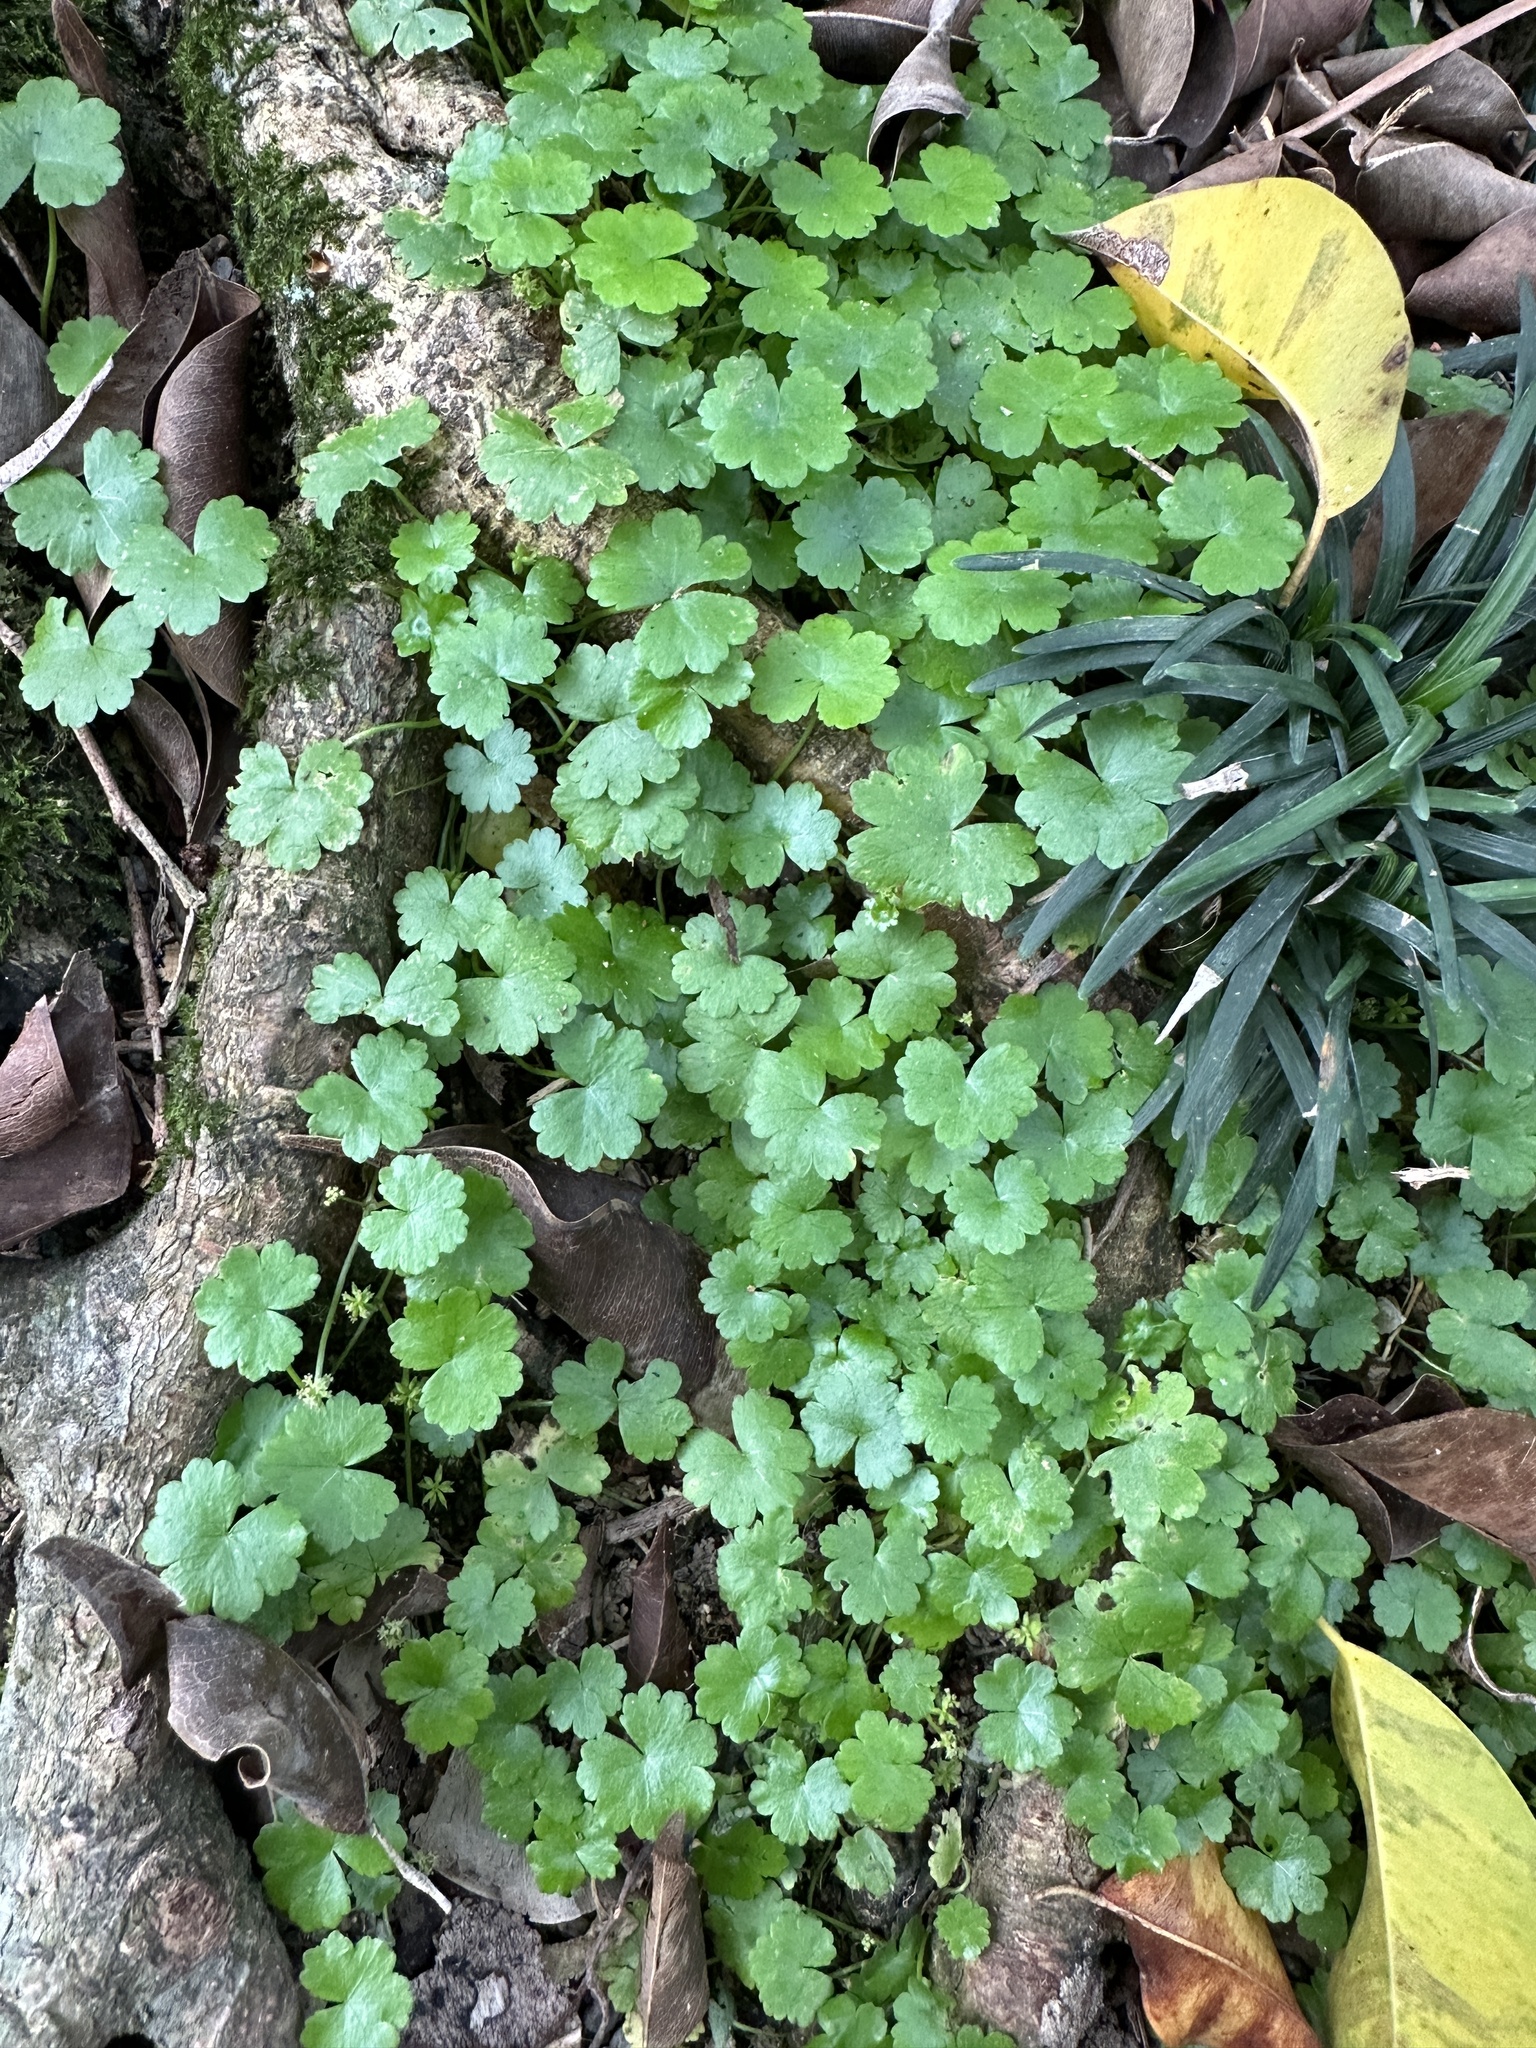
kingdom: Plantae
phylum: Tracheophyta
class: Magnoliopsida
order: Apiales
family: Araliaceae
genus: Hydrocotyle
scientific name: Hydrocotyle sibthorpioides
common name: Lawn marshpennywort
